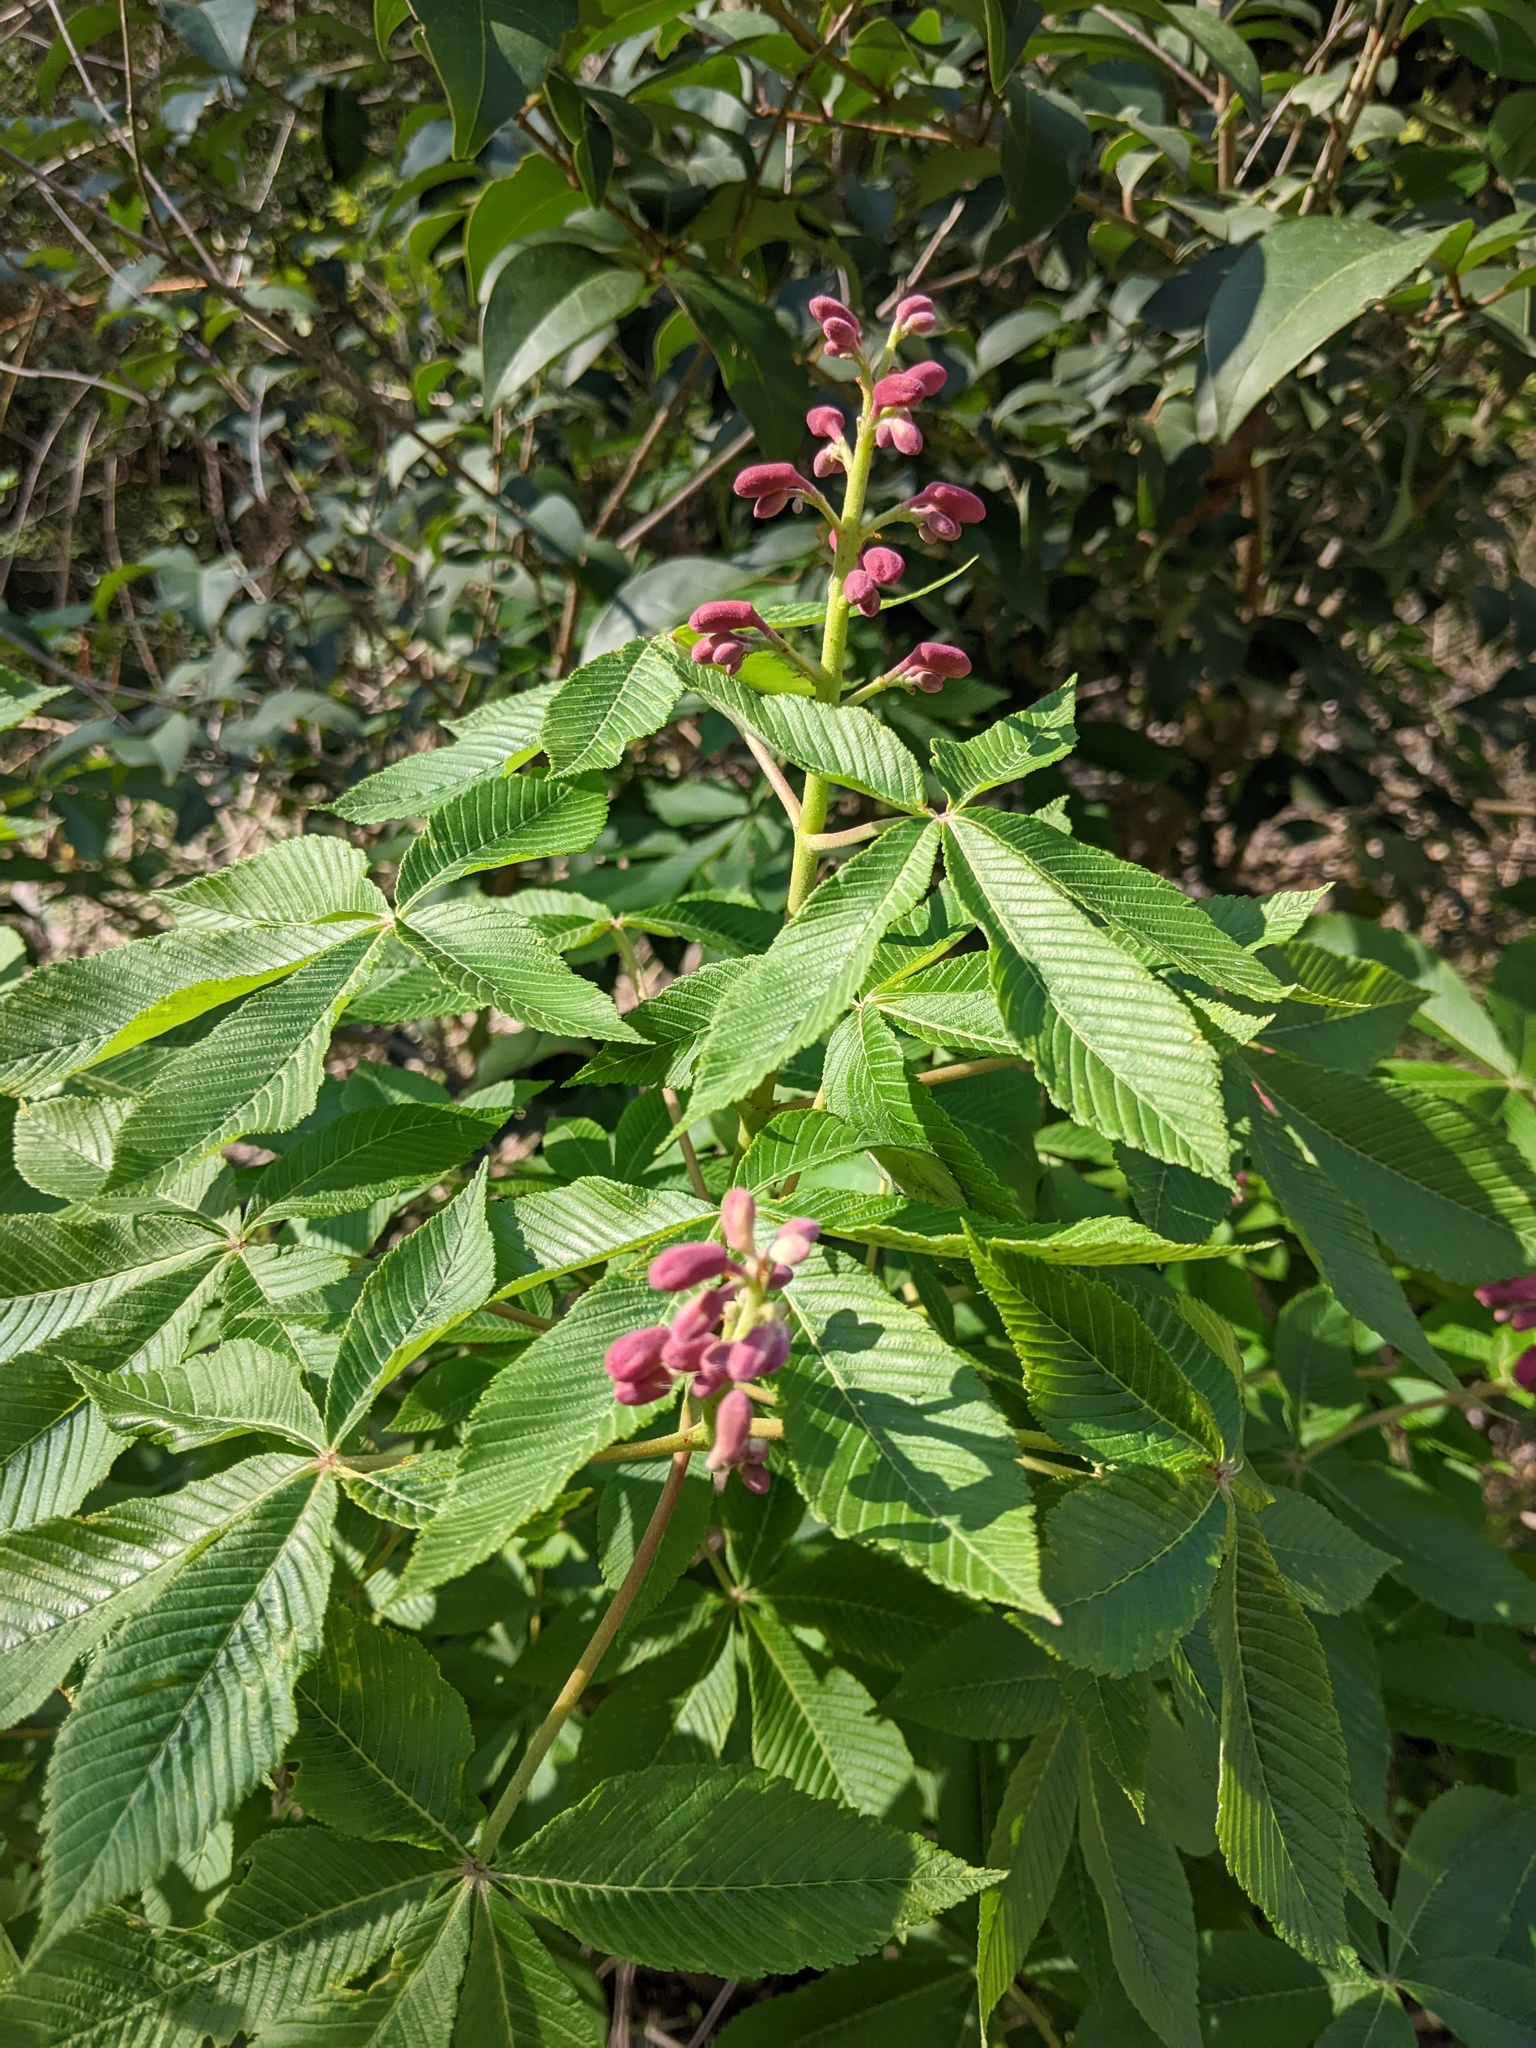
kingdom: Plantae
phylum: Tracheophyta
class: Magnoliopsida
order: Sapindales
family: Sapindaceae
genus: Aesculus
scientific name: Aesculus pavia
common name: Red buckeye
